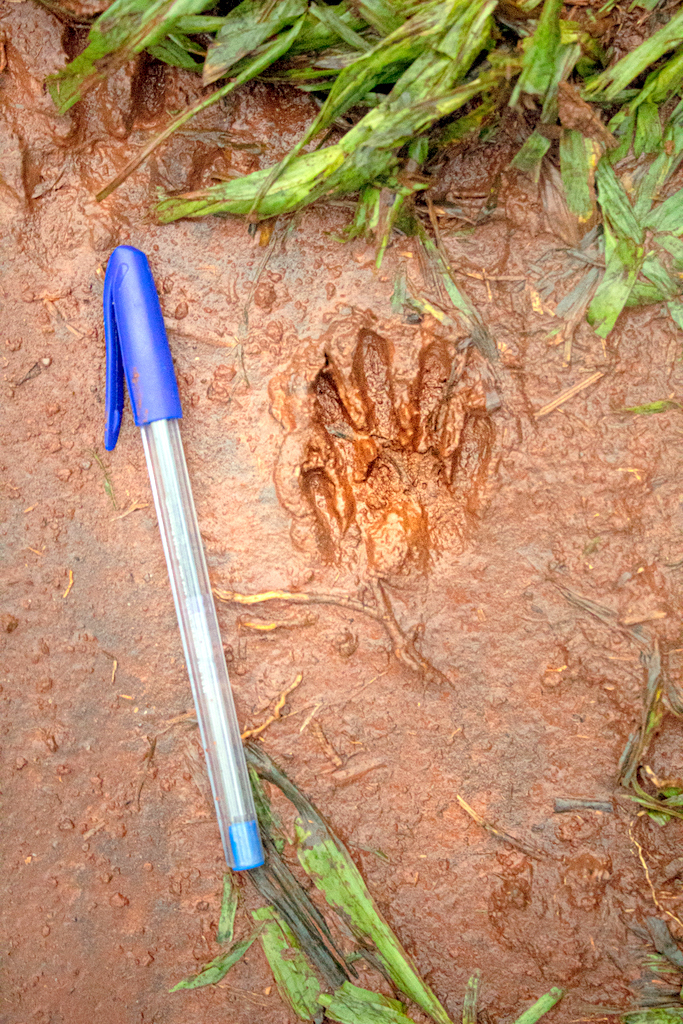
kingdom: Animalia
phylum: Chordata
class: Mammalia
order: Carnivora
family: Procyonidae
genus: Procyon
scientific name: Procyon cancrivorus
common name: Crab-eating raccoon
